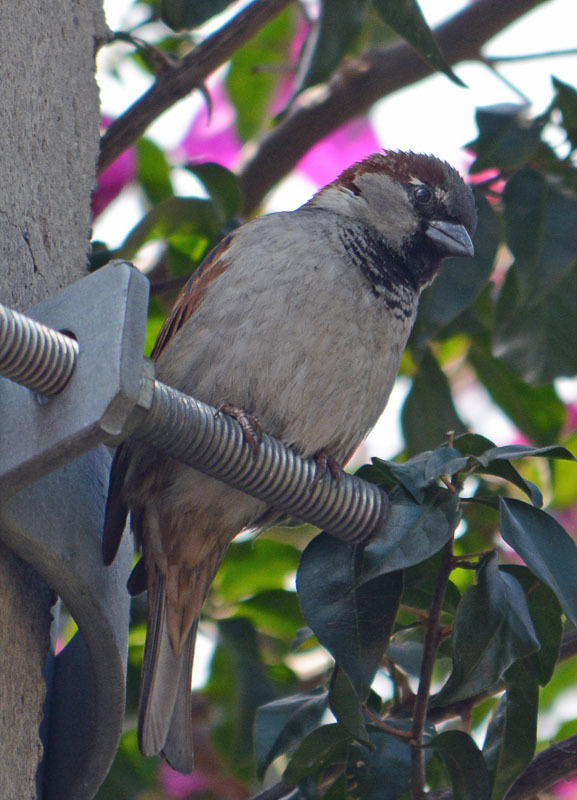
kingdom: Animalia
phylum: Chordata
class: Aves
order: Passeriformes
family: Passeridae
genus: Passer
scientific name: Passer domesticus
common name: House sparrow
